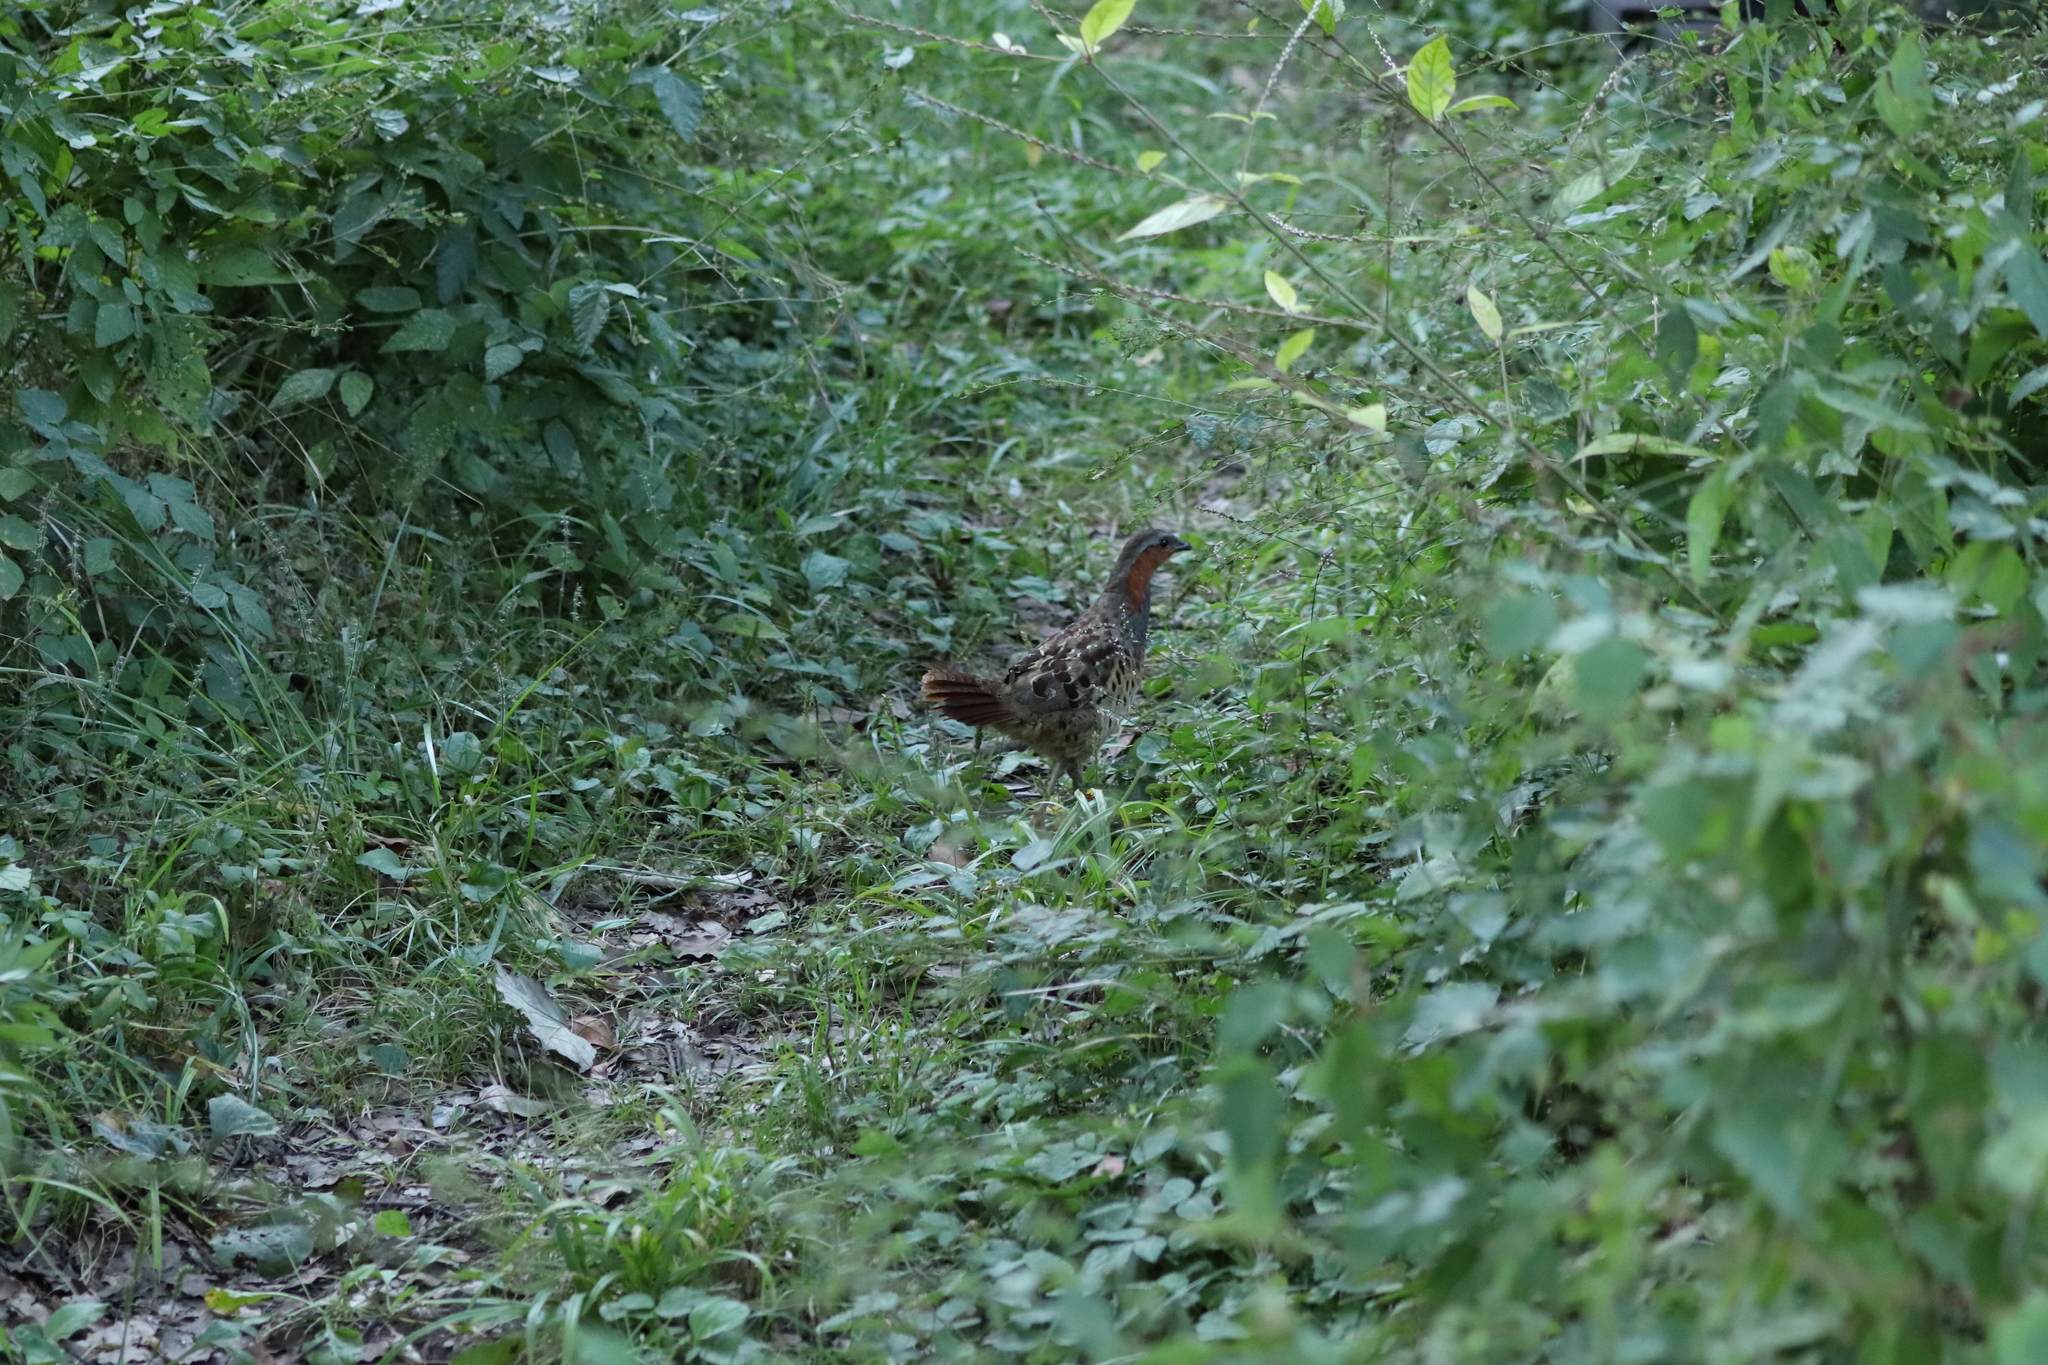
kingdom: Animalia
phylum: Chordata
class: Aves
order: Galliformes
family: Phasianidae
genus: Bambusicola
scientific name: Bambusicola thoracicus
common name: Chinese bamboo partridge
